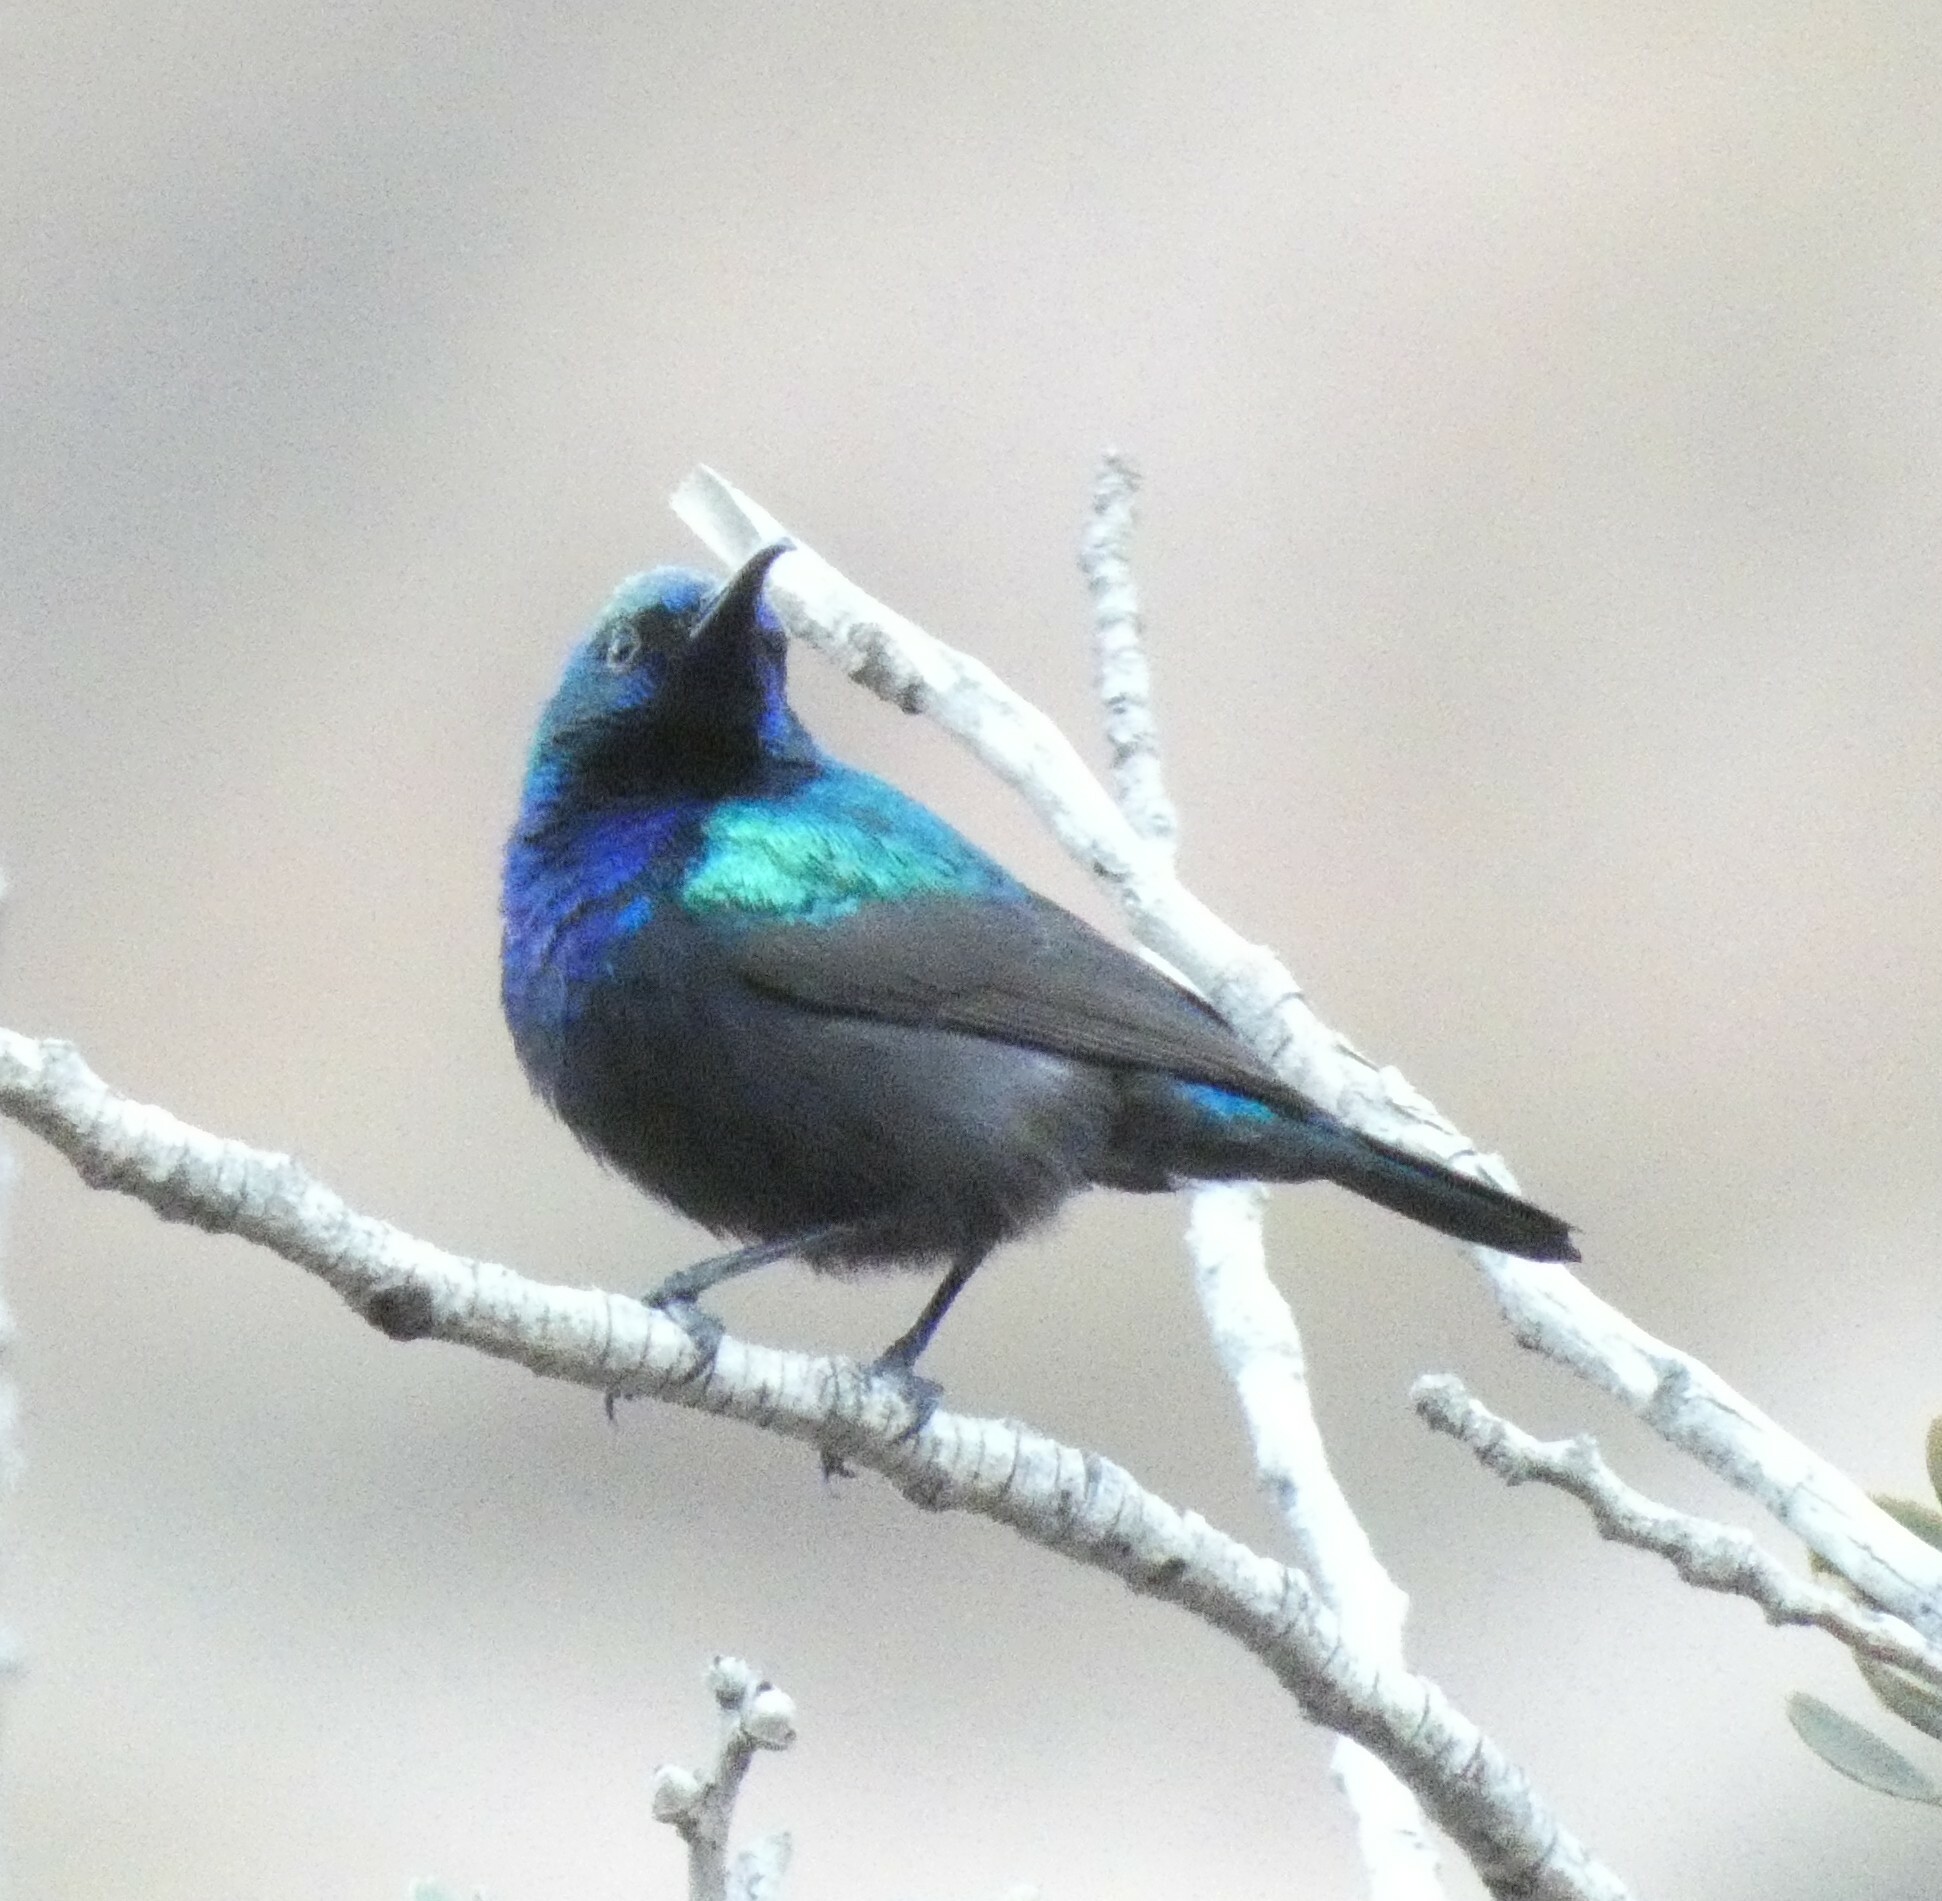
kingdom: Animalia
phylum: Chordata
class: Aves
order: Passeriformes
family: Nectariniidae
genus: Cinnyris
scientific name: Cinnyris osea
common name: Palestine sunbird
